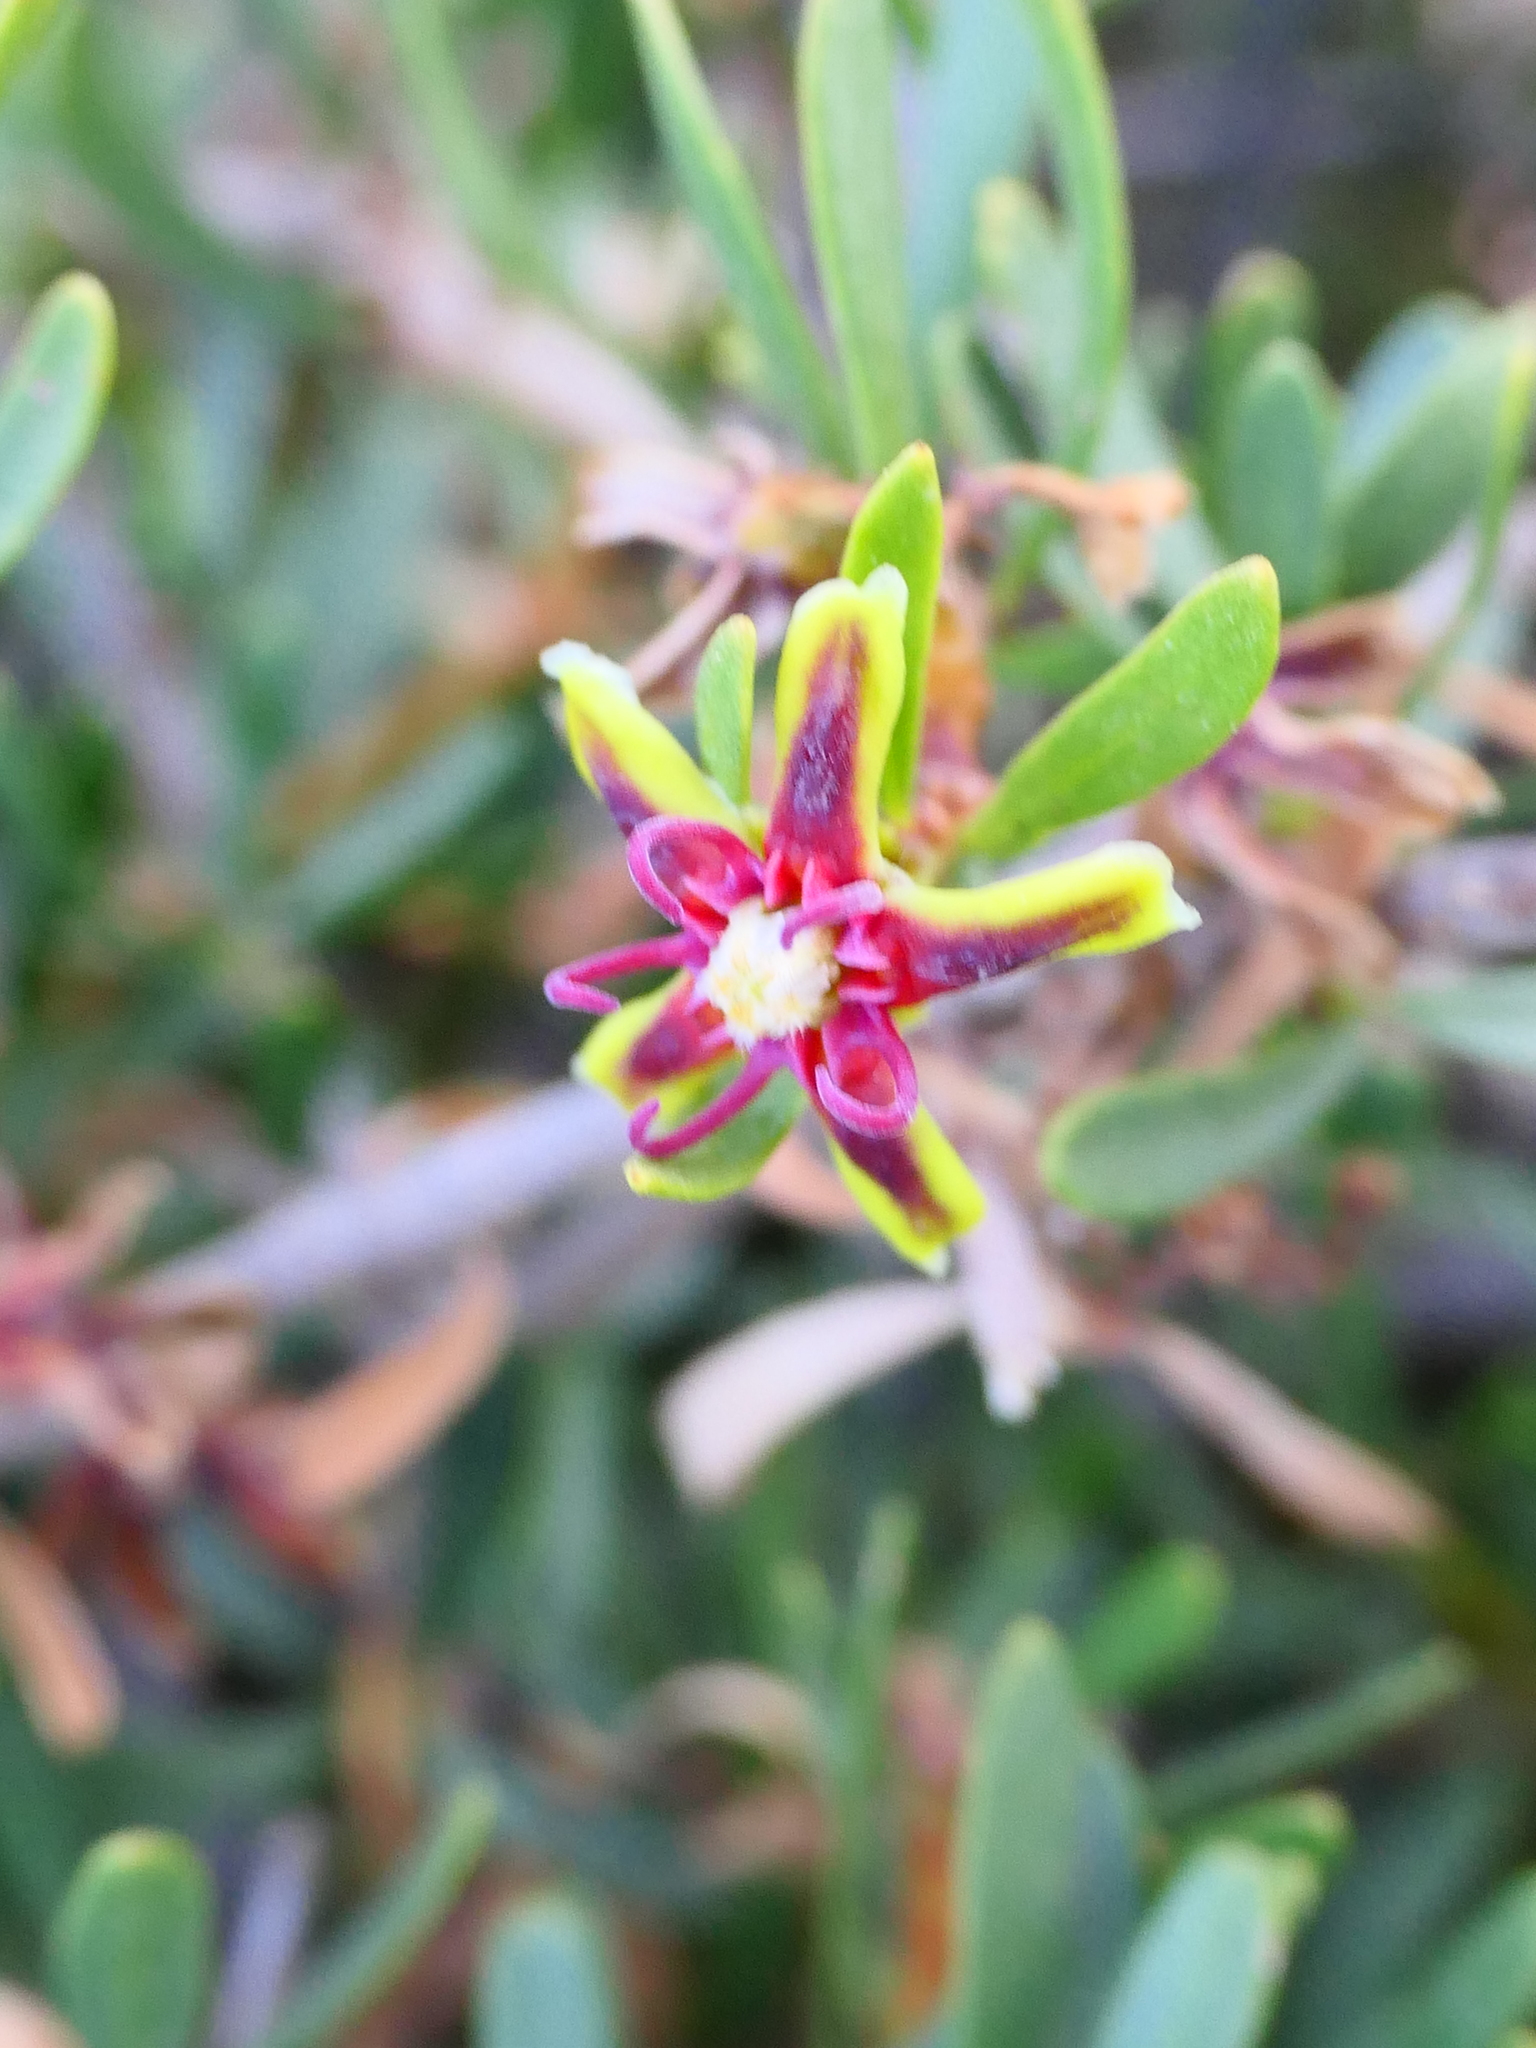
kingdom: Plantae
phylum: Tracheophyta
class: Magnoliopsida
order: Gentianales
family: Apocynaceae
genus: Periploca
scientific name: Periploca laevigata
